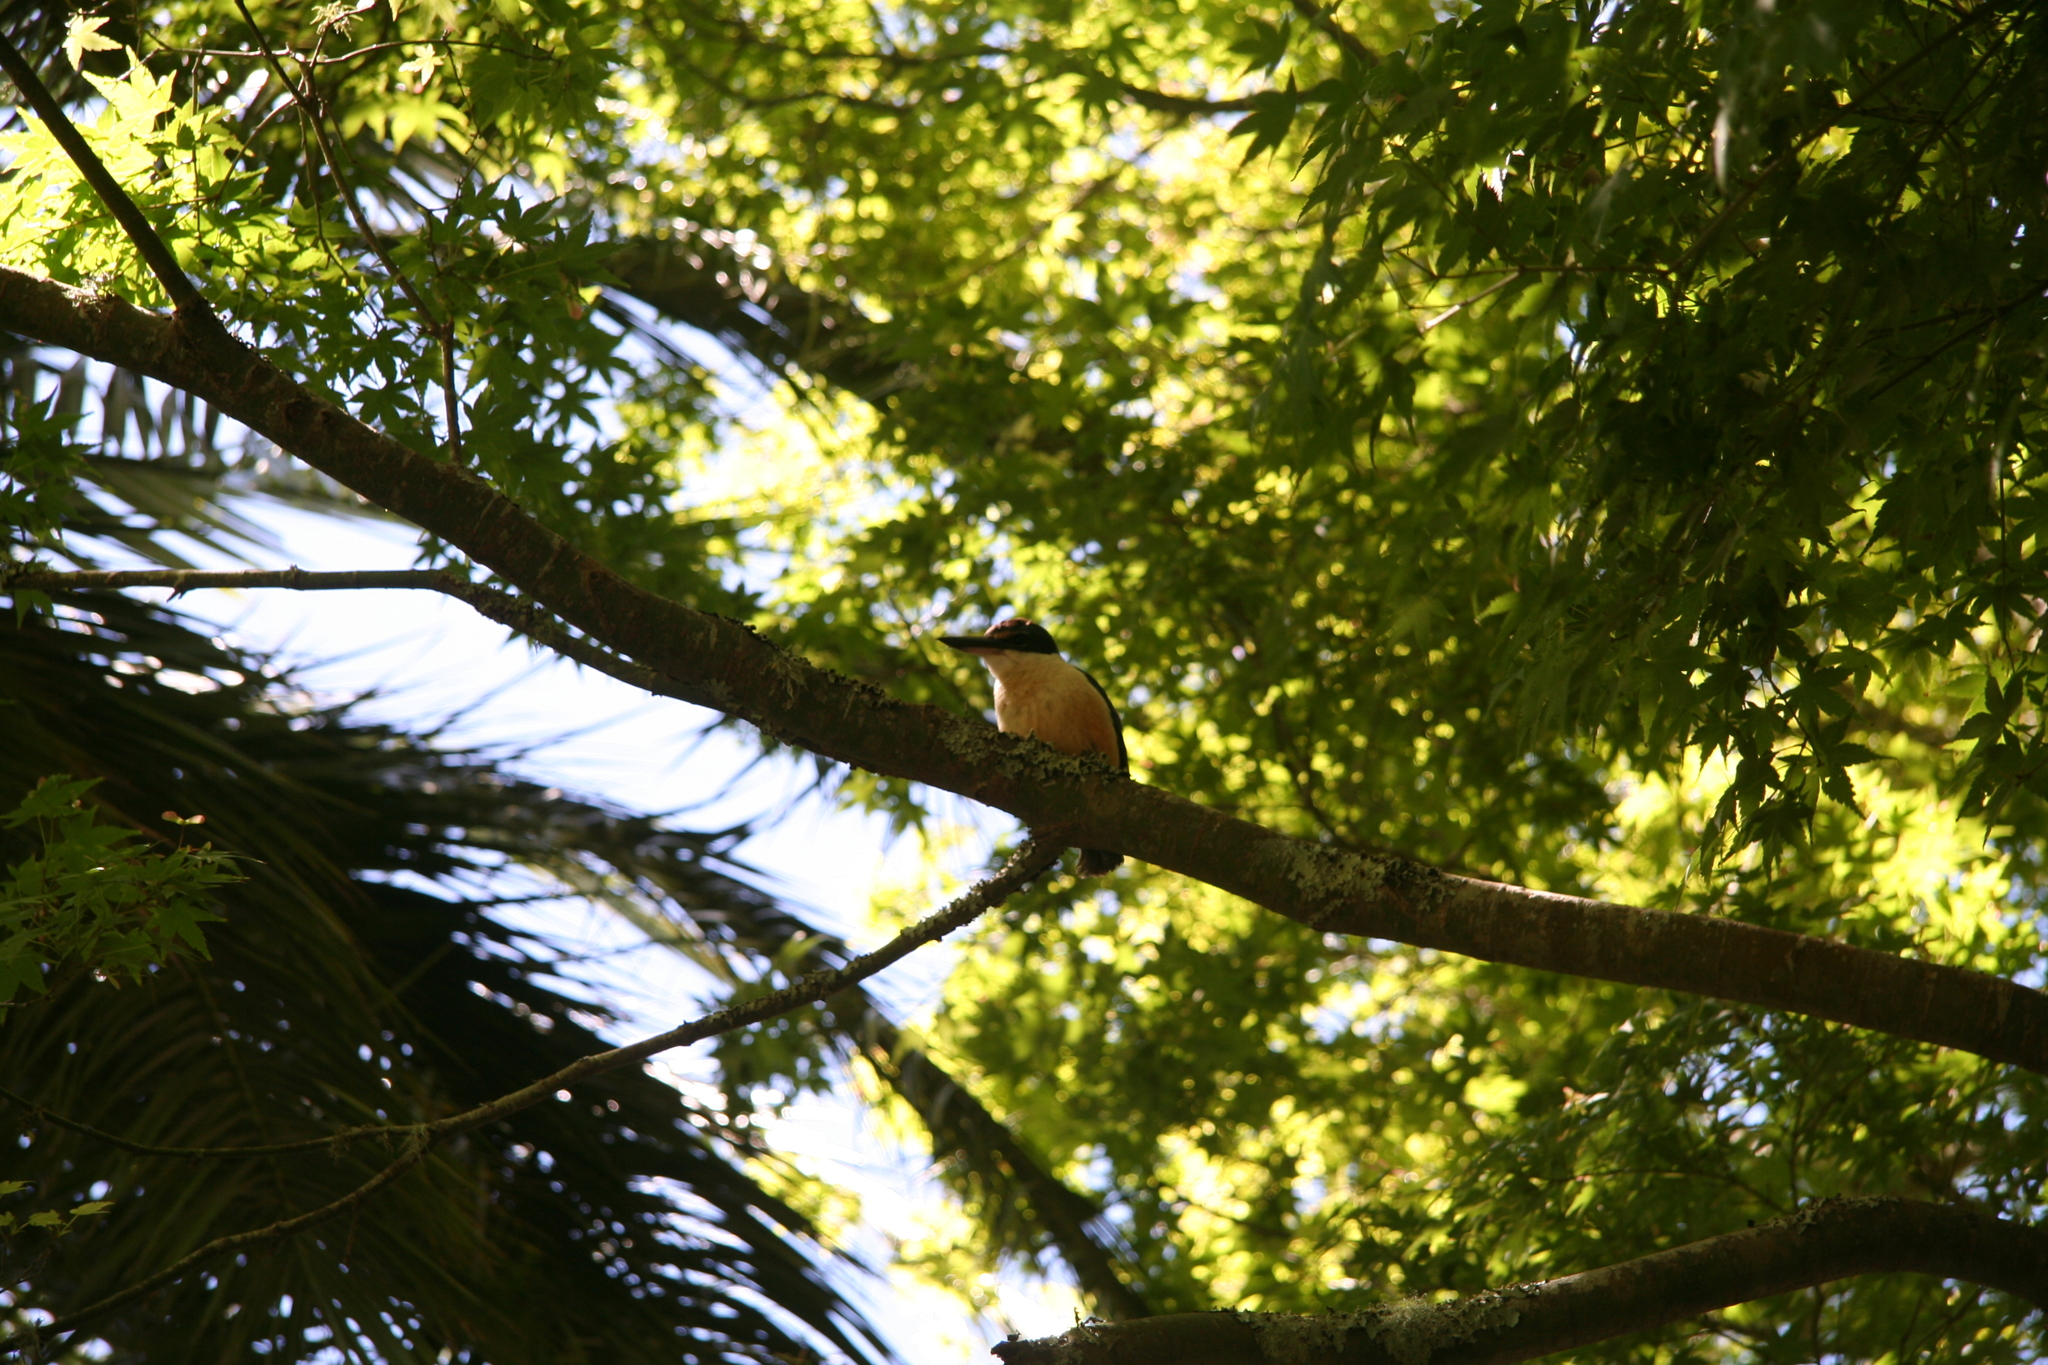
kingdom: Animalia
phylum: Chordata
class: Aves
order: Coraciiformes
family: Alcedinidae
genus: Todiramphus
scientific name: Todiramphus sanctus
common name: Sacred kingfisher
